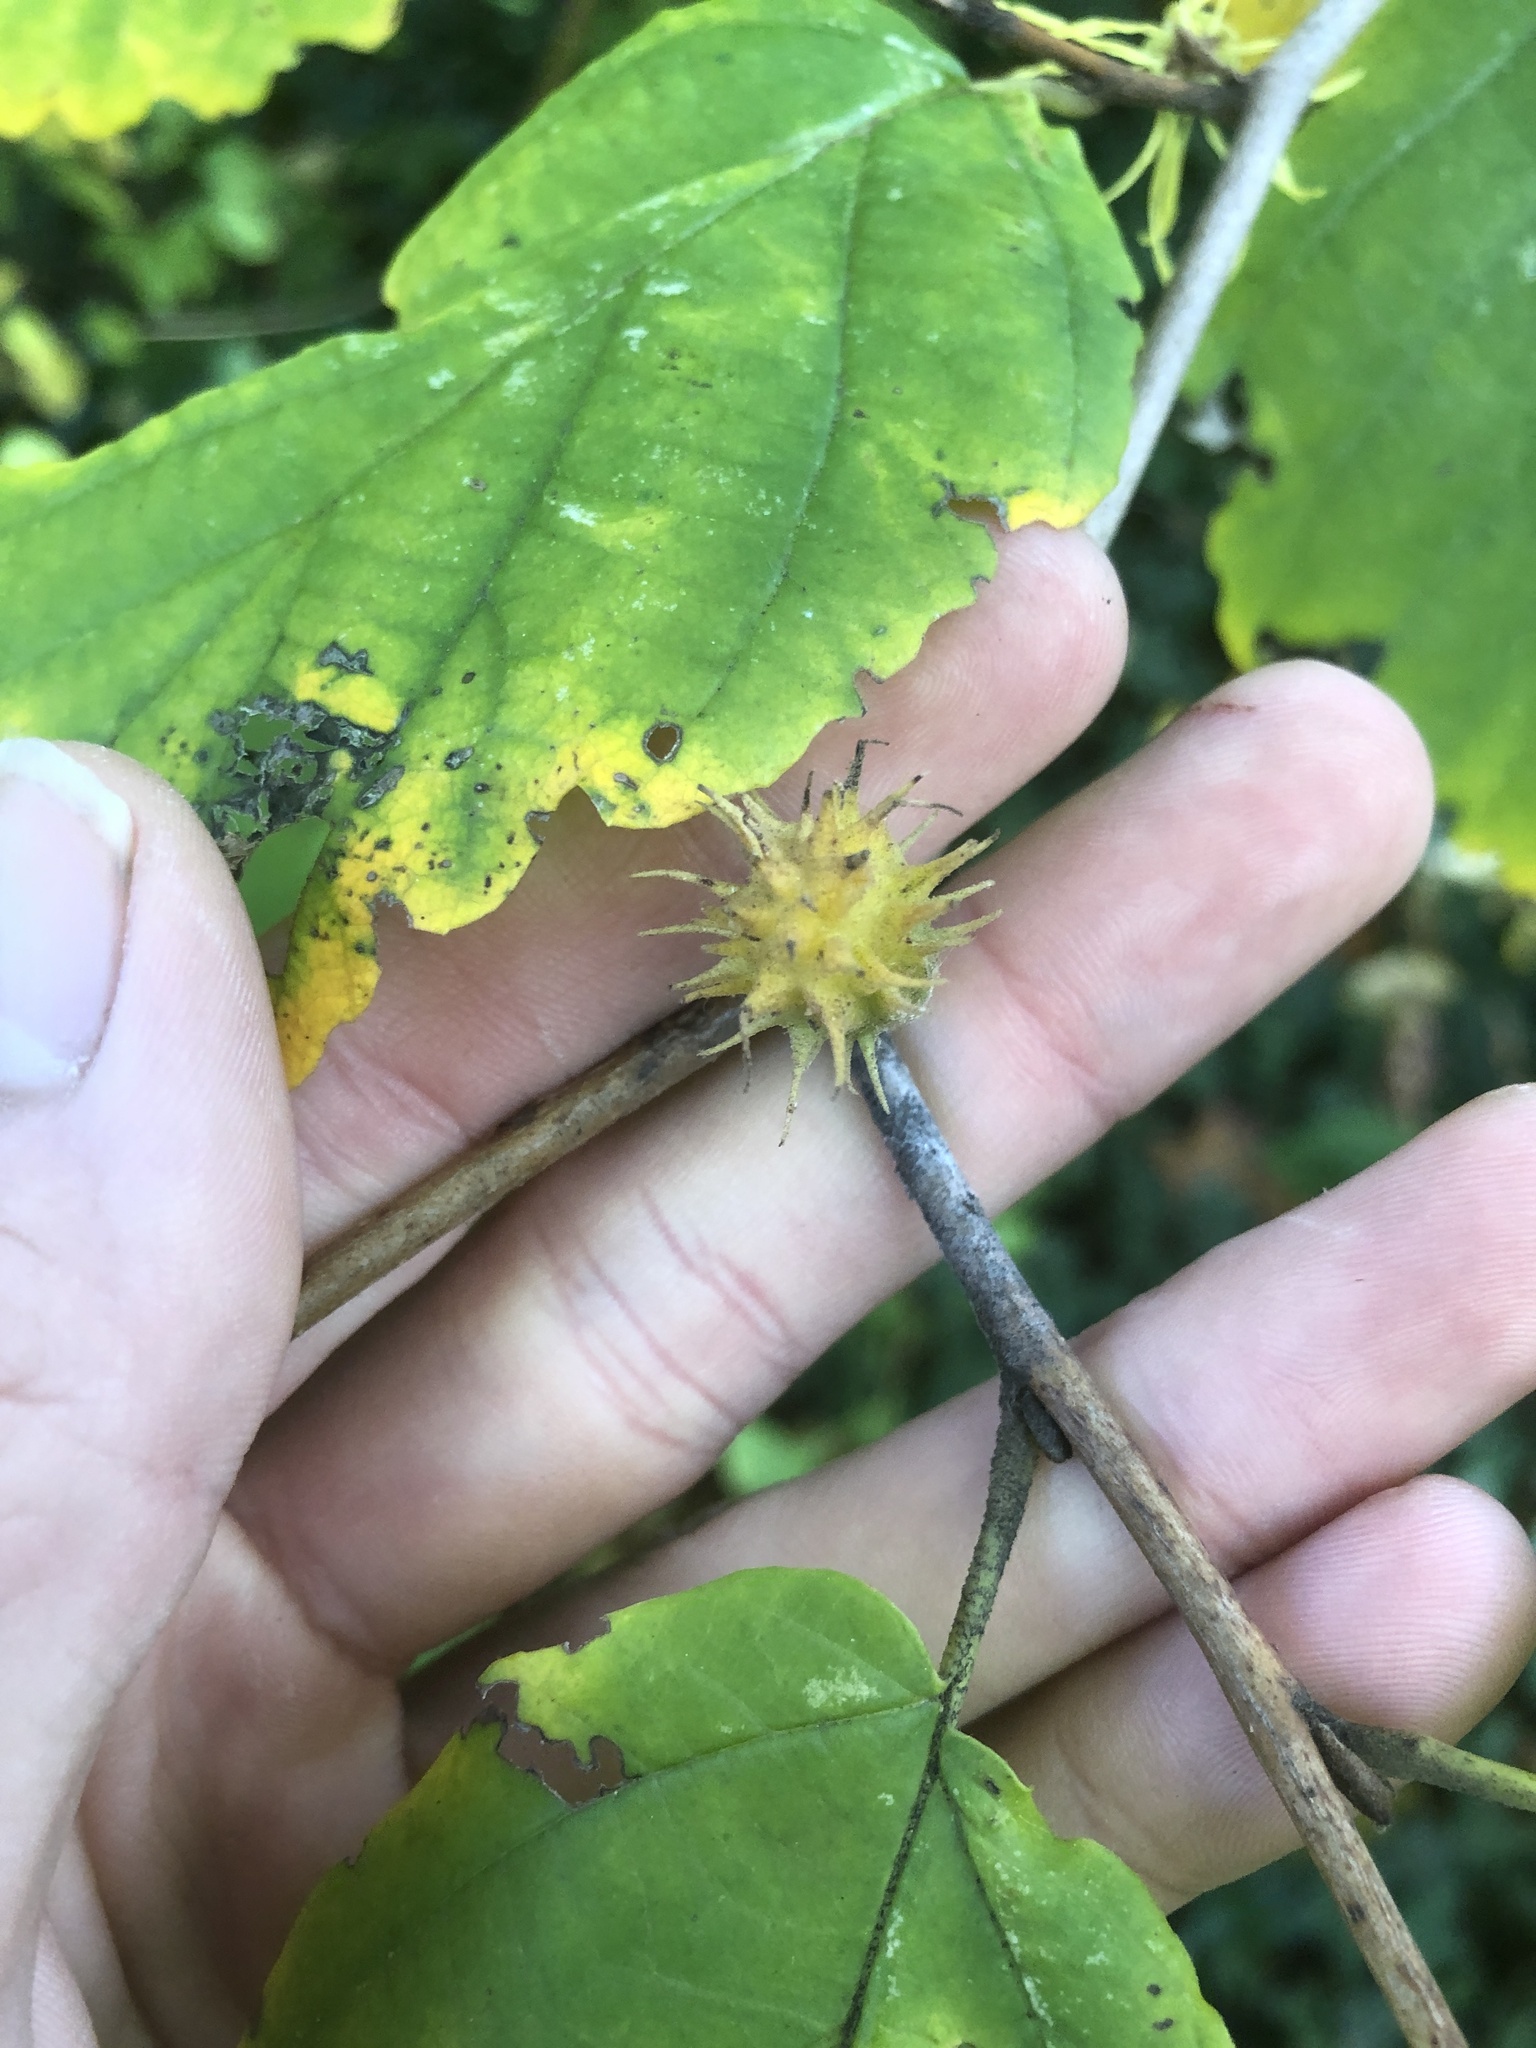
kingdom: Animalia
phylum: Arthropoda
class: Insecta
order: Hemiptera
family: Aphididae
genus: Hamamelistes
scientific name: Hamamelistes spinosus
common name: Witch hazel gall aphid
